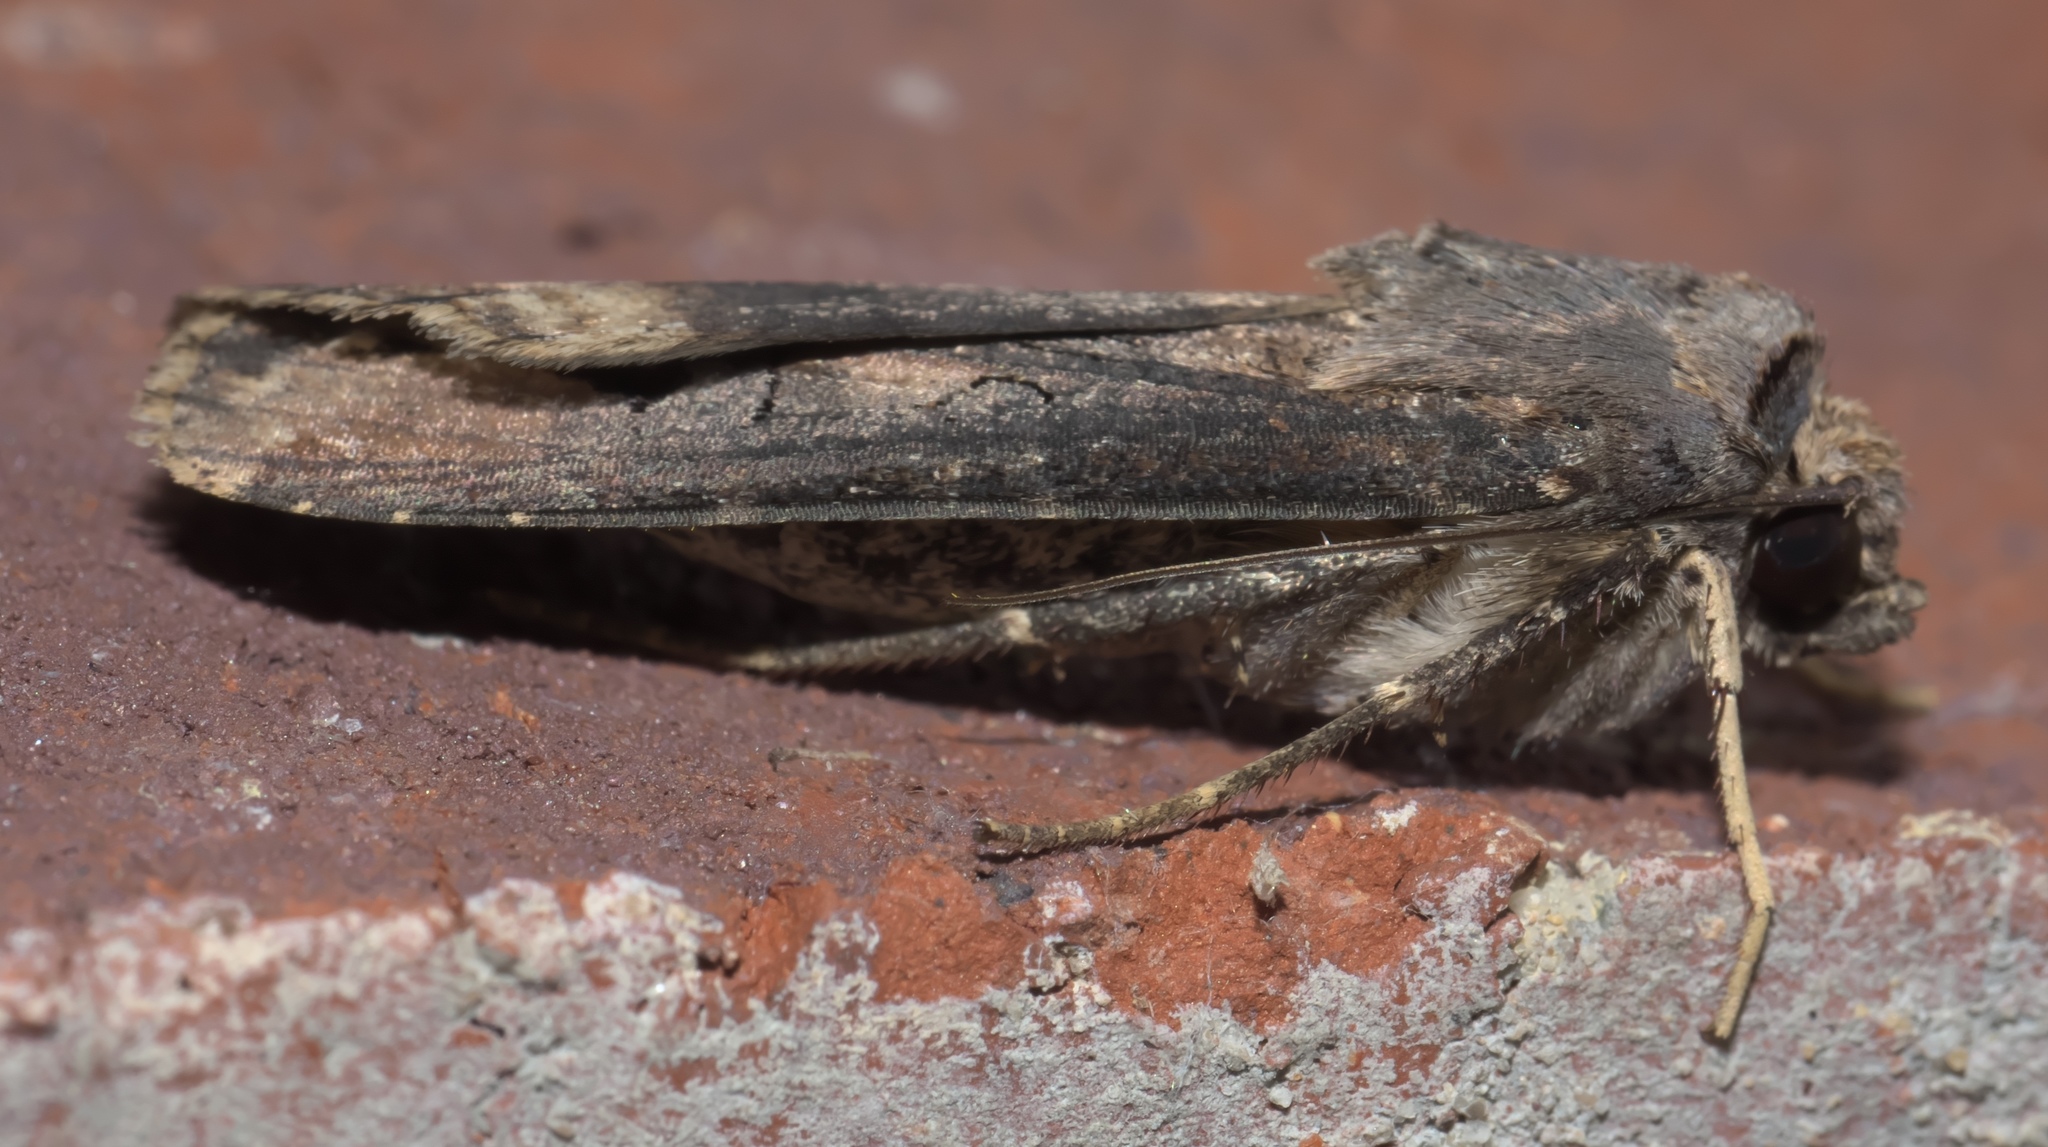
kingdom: Animalia
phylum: Arthropoda
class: Insecta
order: Lepidoptera
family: Noctuidae
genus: Agrotis
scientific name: Agrotis ipsilon
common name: Dark sword-grass
